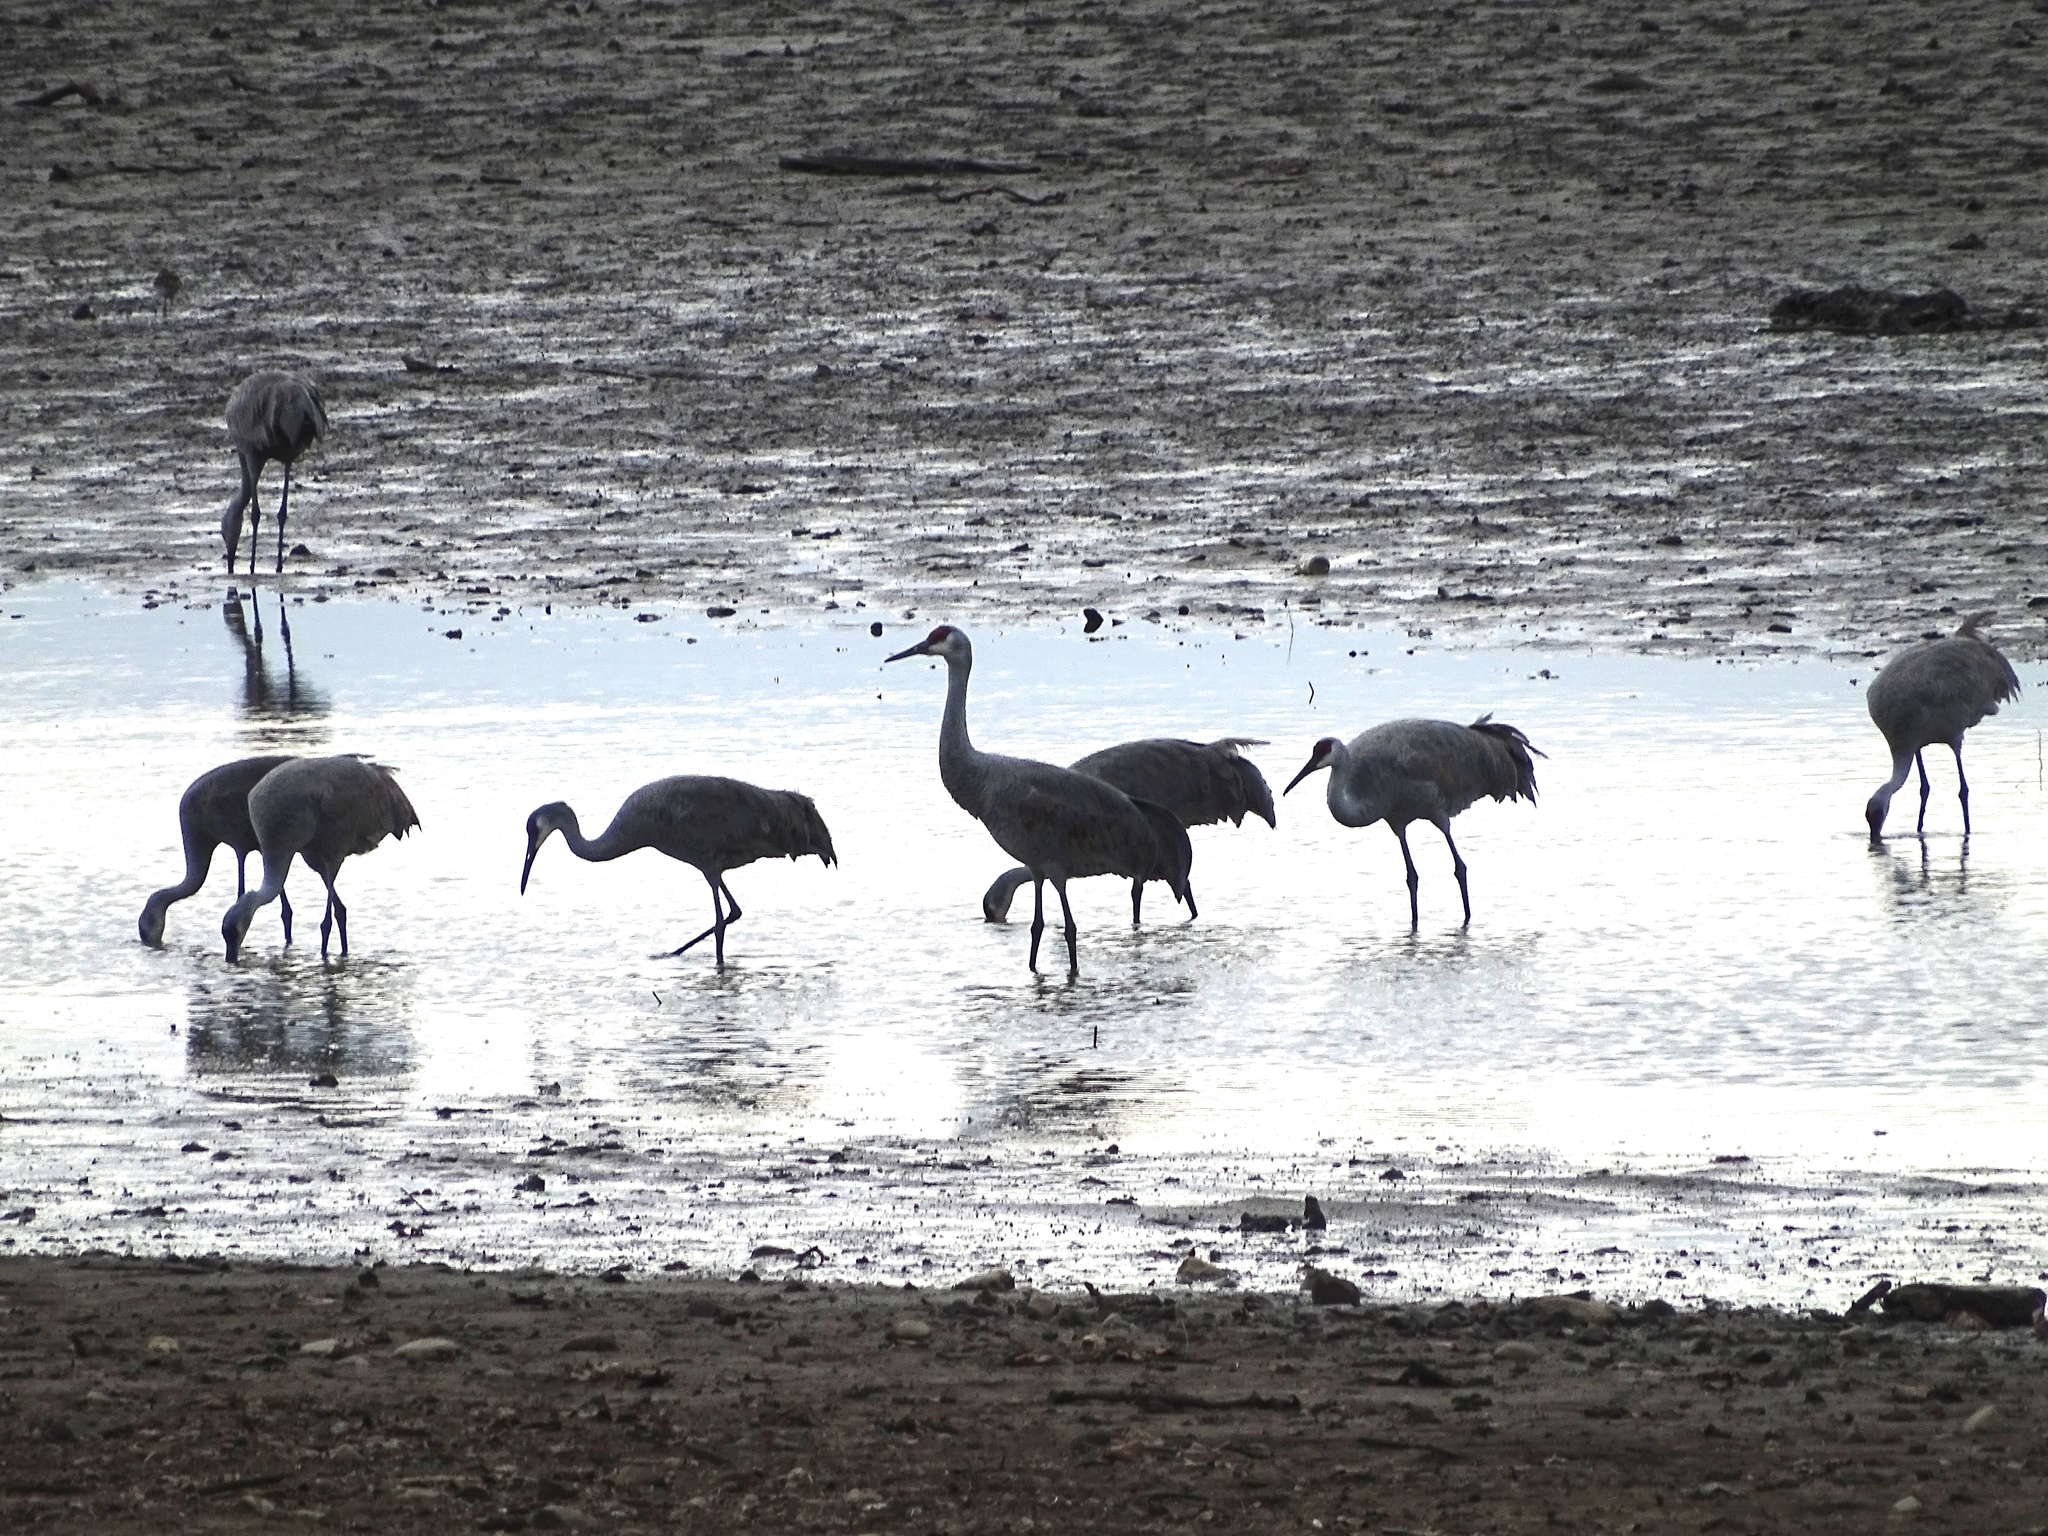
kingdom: Animalia
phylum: Chordata
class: Aves
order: Gruiformes
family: Gruidae
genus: Grus
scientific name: Grus canadensis
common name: Sandhill crane
